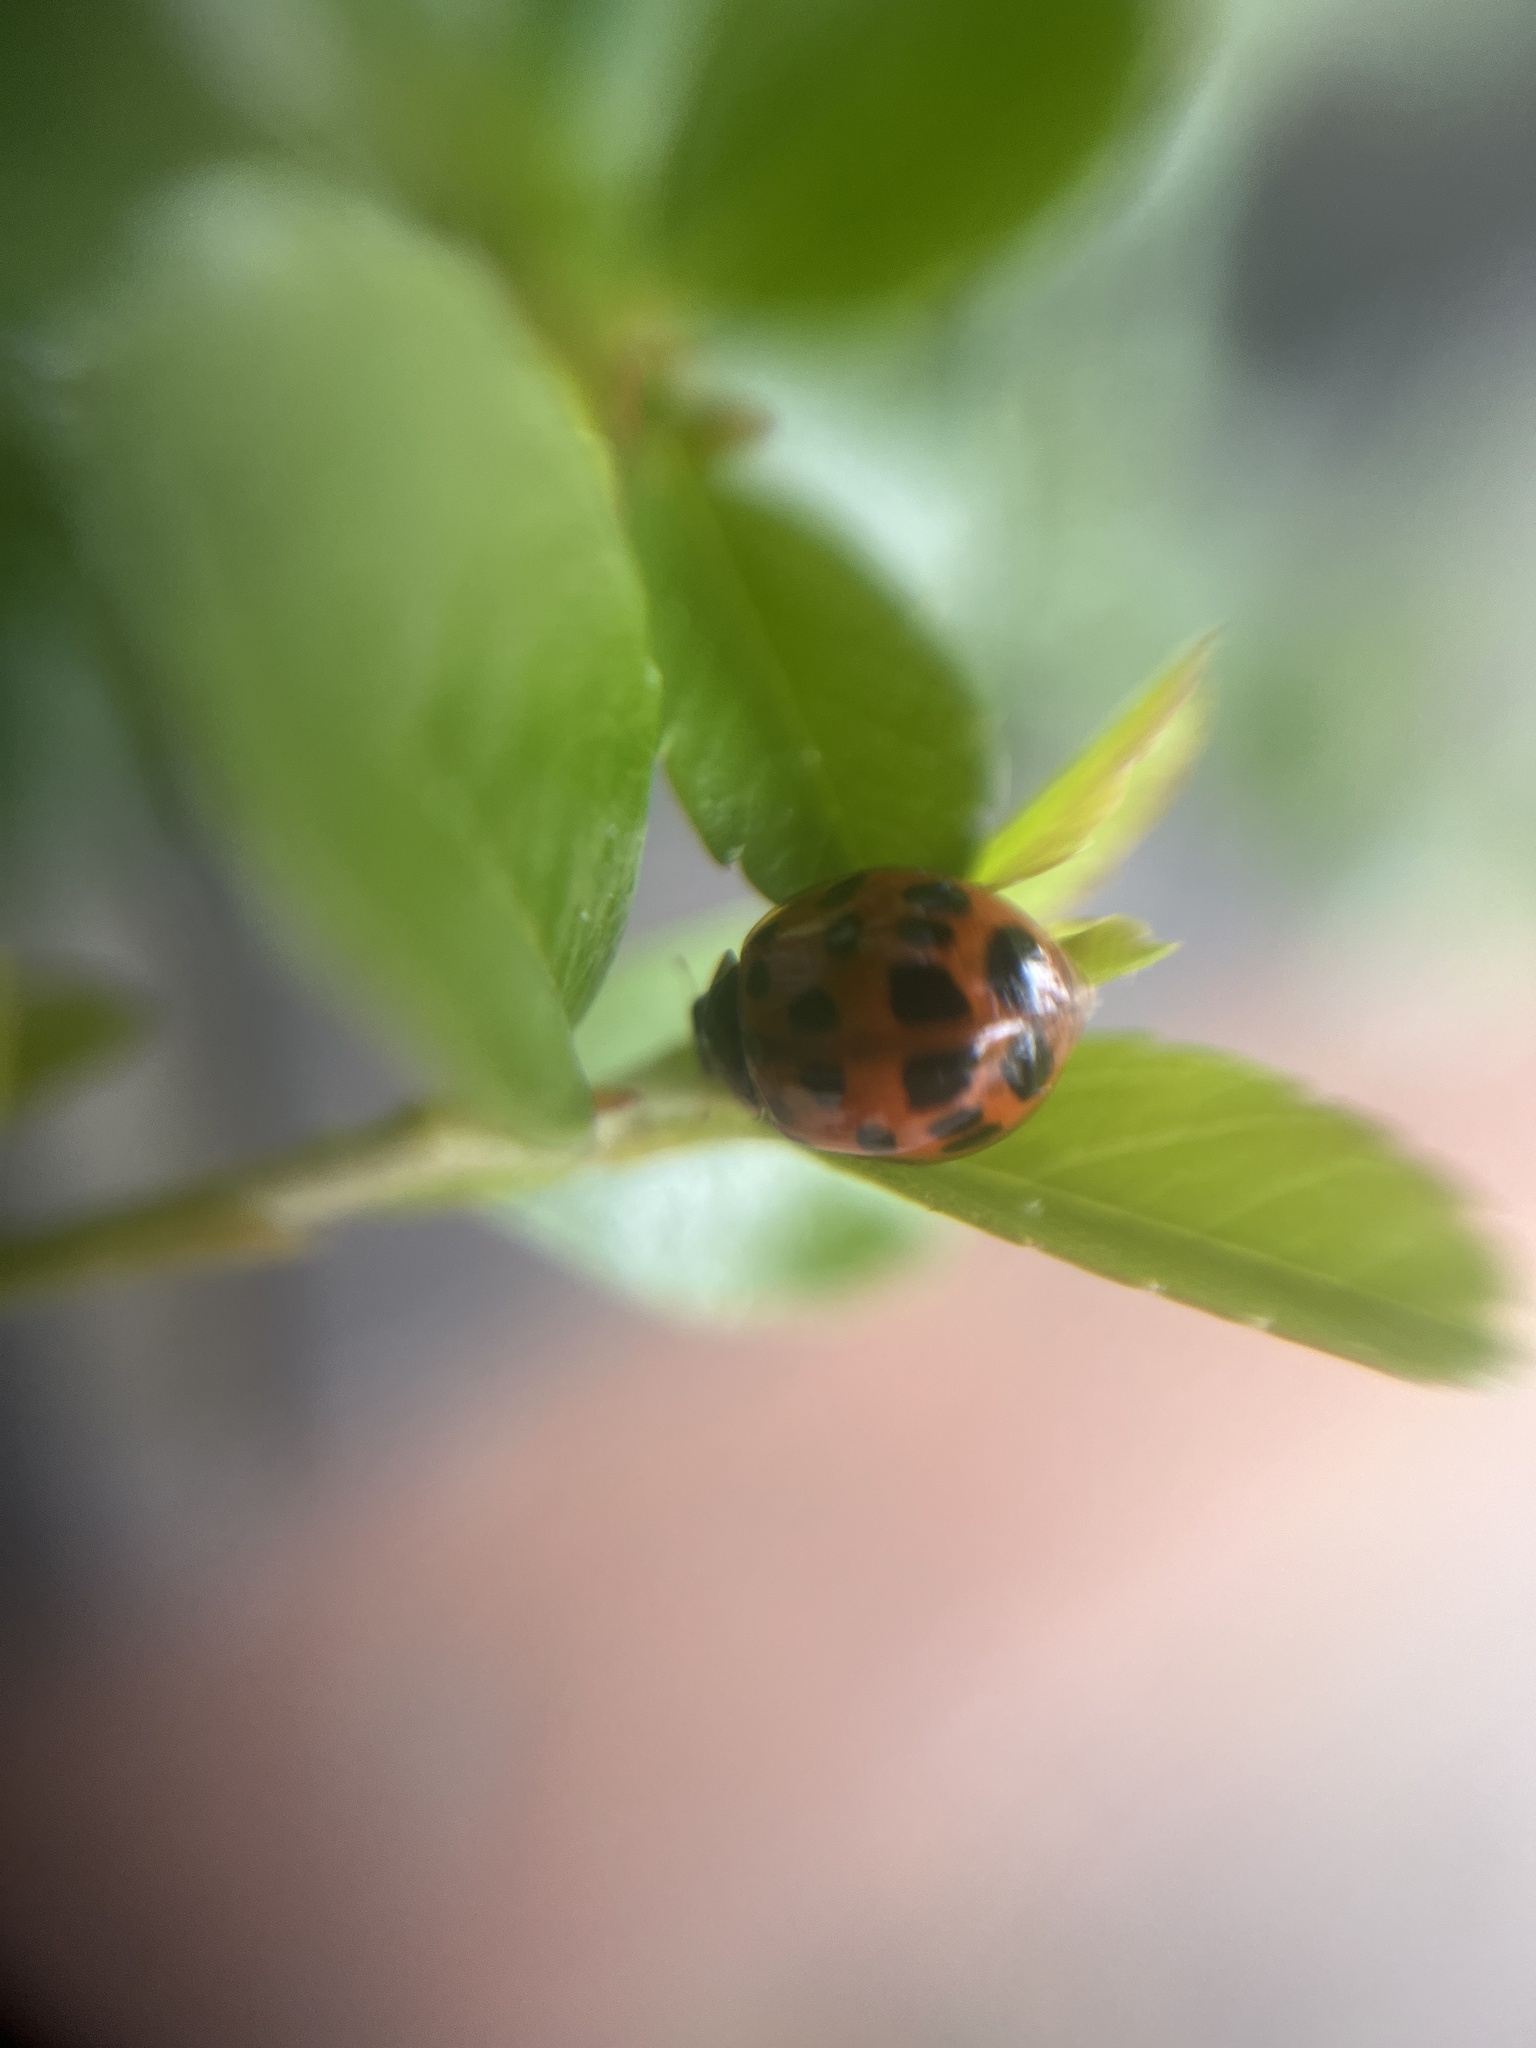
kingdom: Animalia
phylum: Arthropoda
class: Insecta
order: Coleoptera
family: Coccinellidae
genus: Harmonia
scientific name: Harmonia axyridis
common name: Harlequin ladybird
